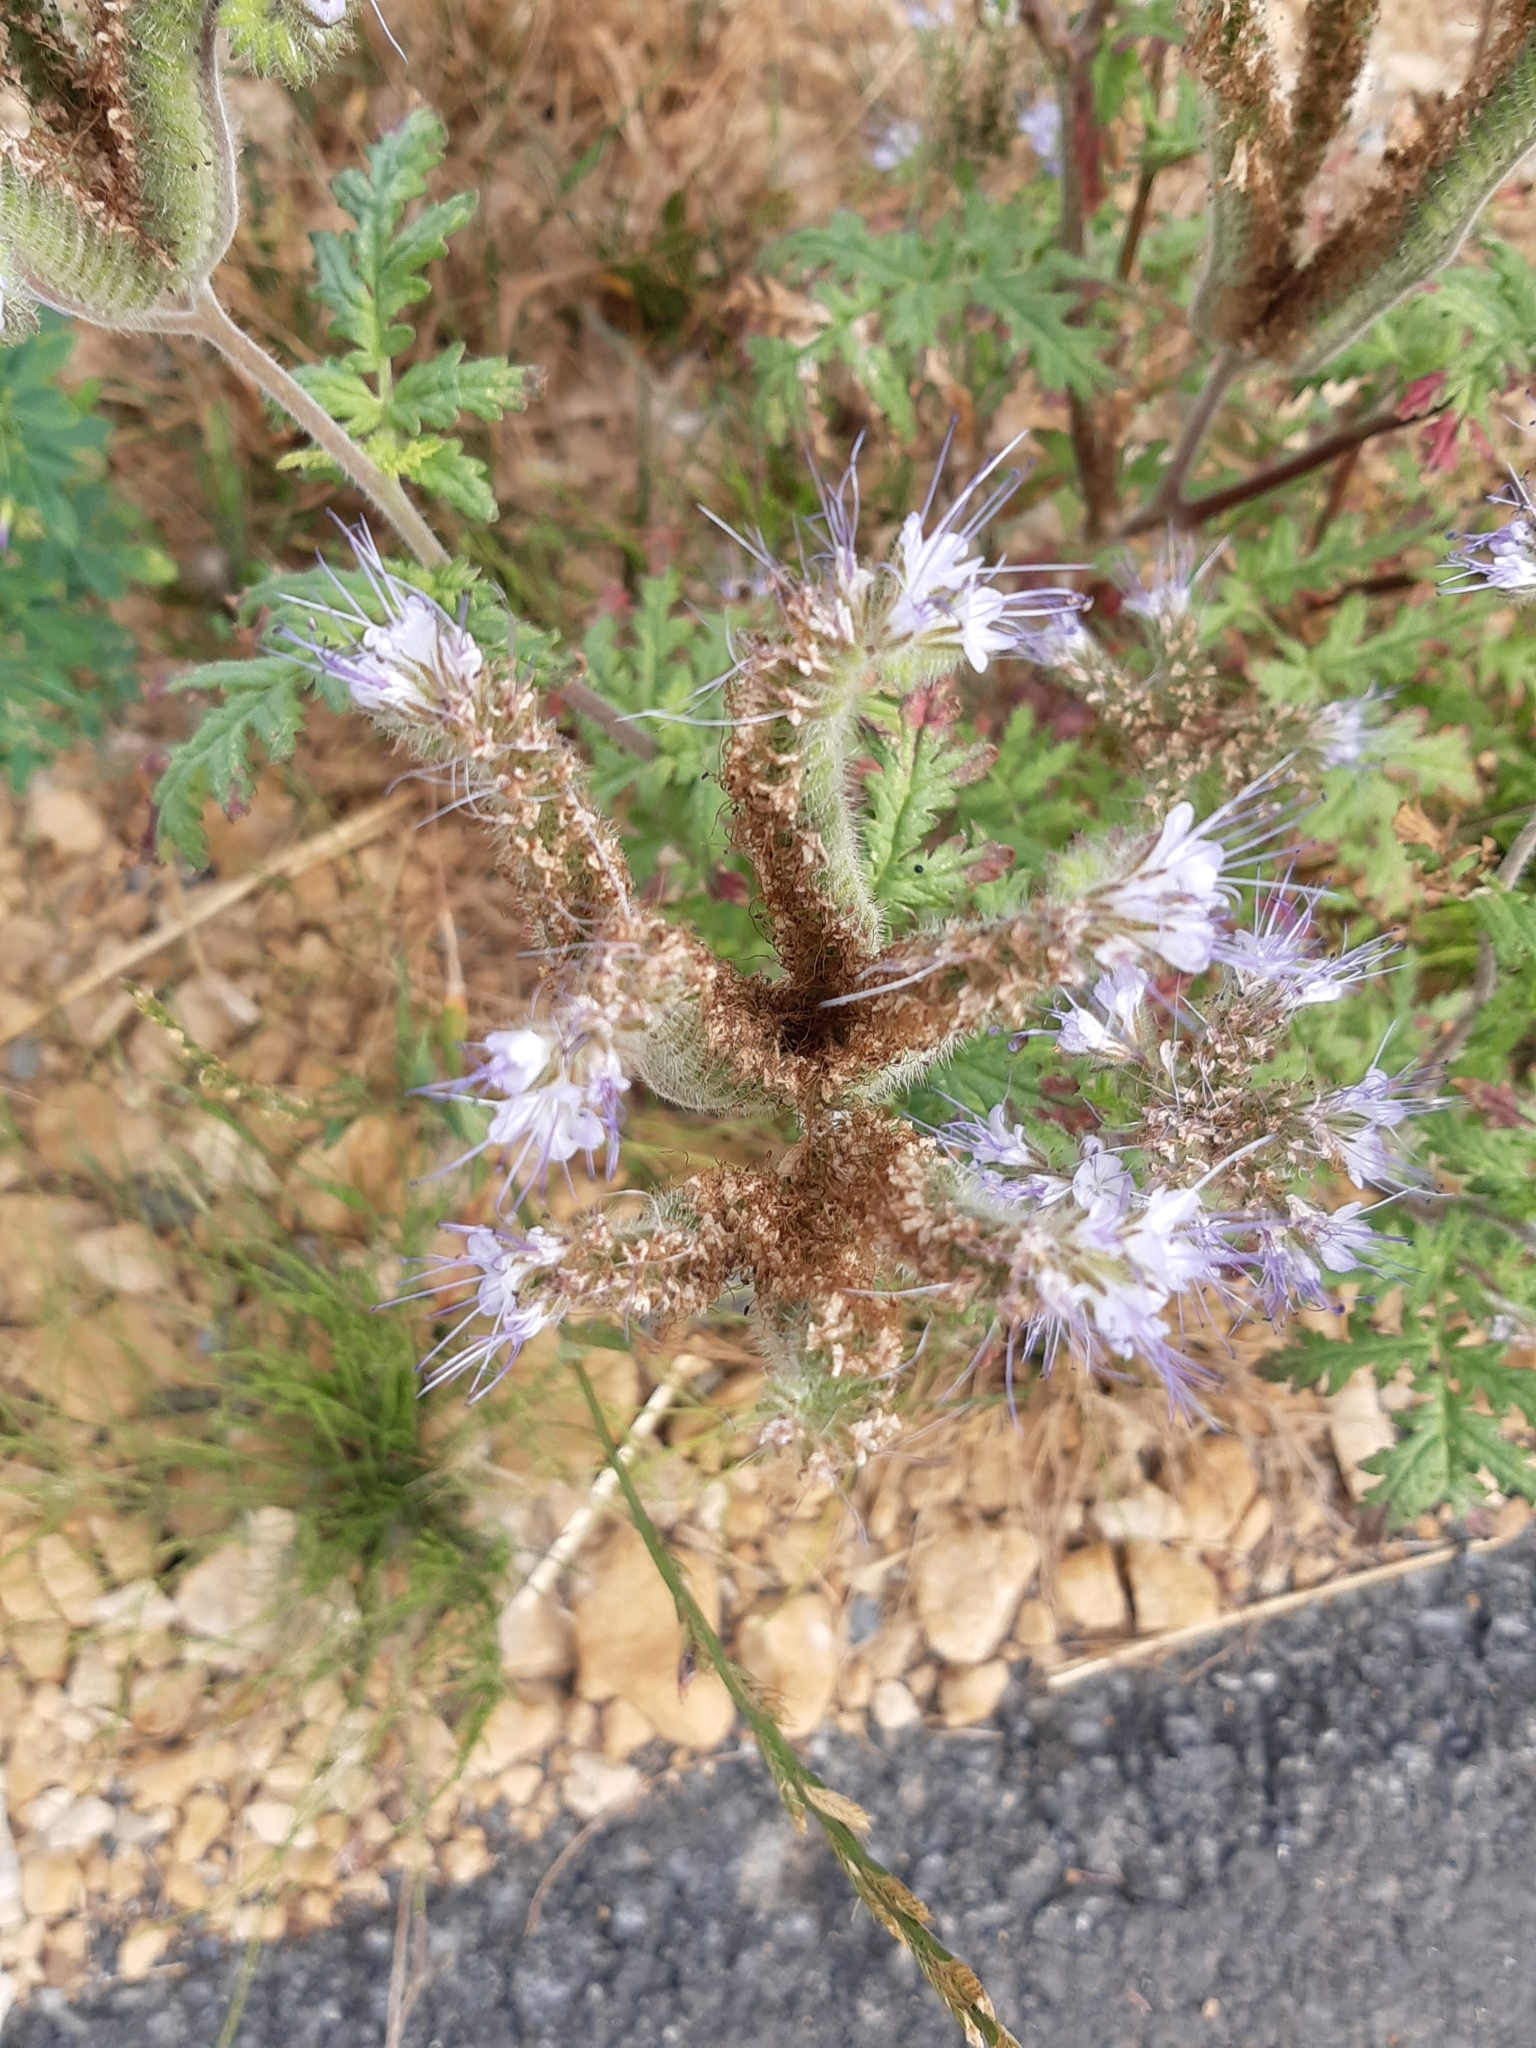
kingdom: Plantae
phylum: Tracheophyta
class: Magnoliopsida
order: Boraginales
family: Hydrophyllaceae
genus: Phacelia
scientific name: Phacelia tanacetifolia
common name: Phacelia
